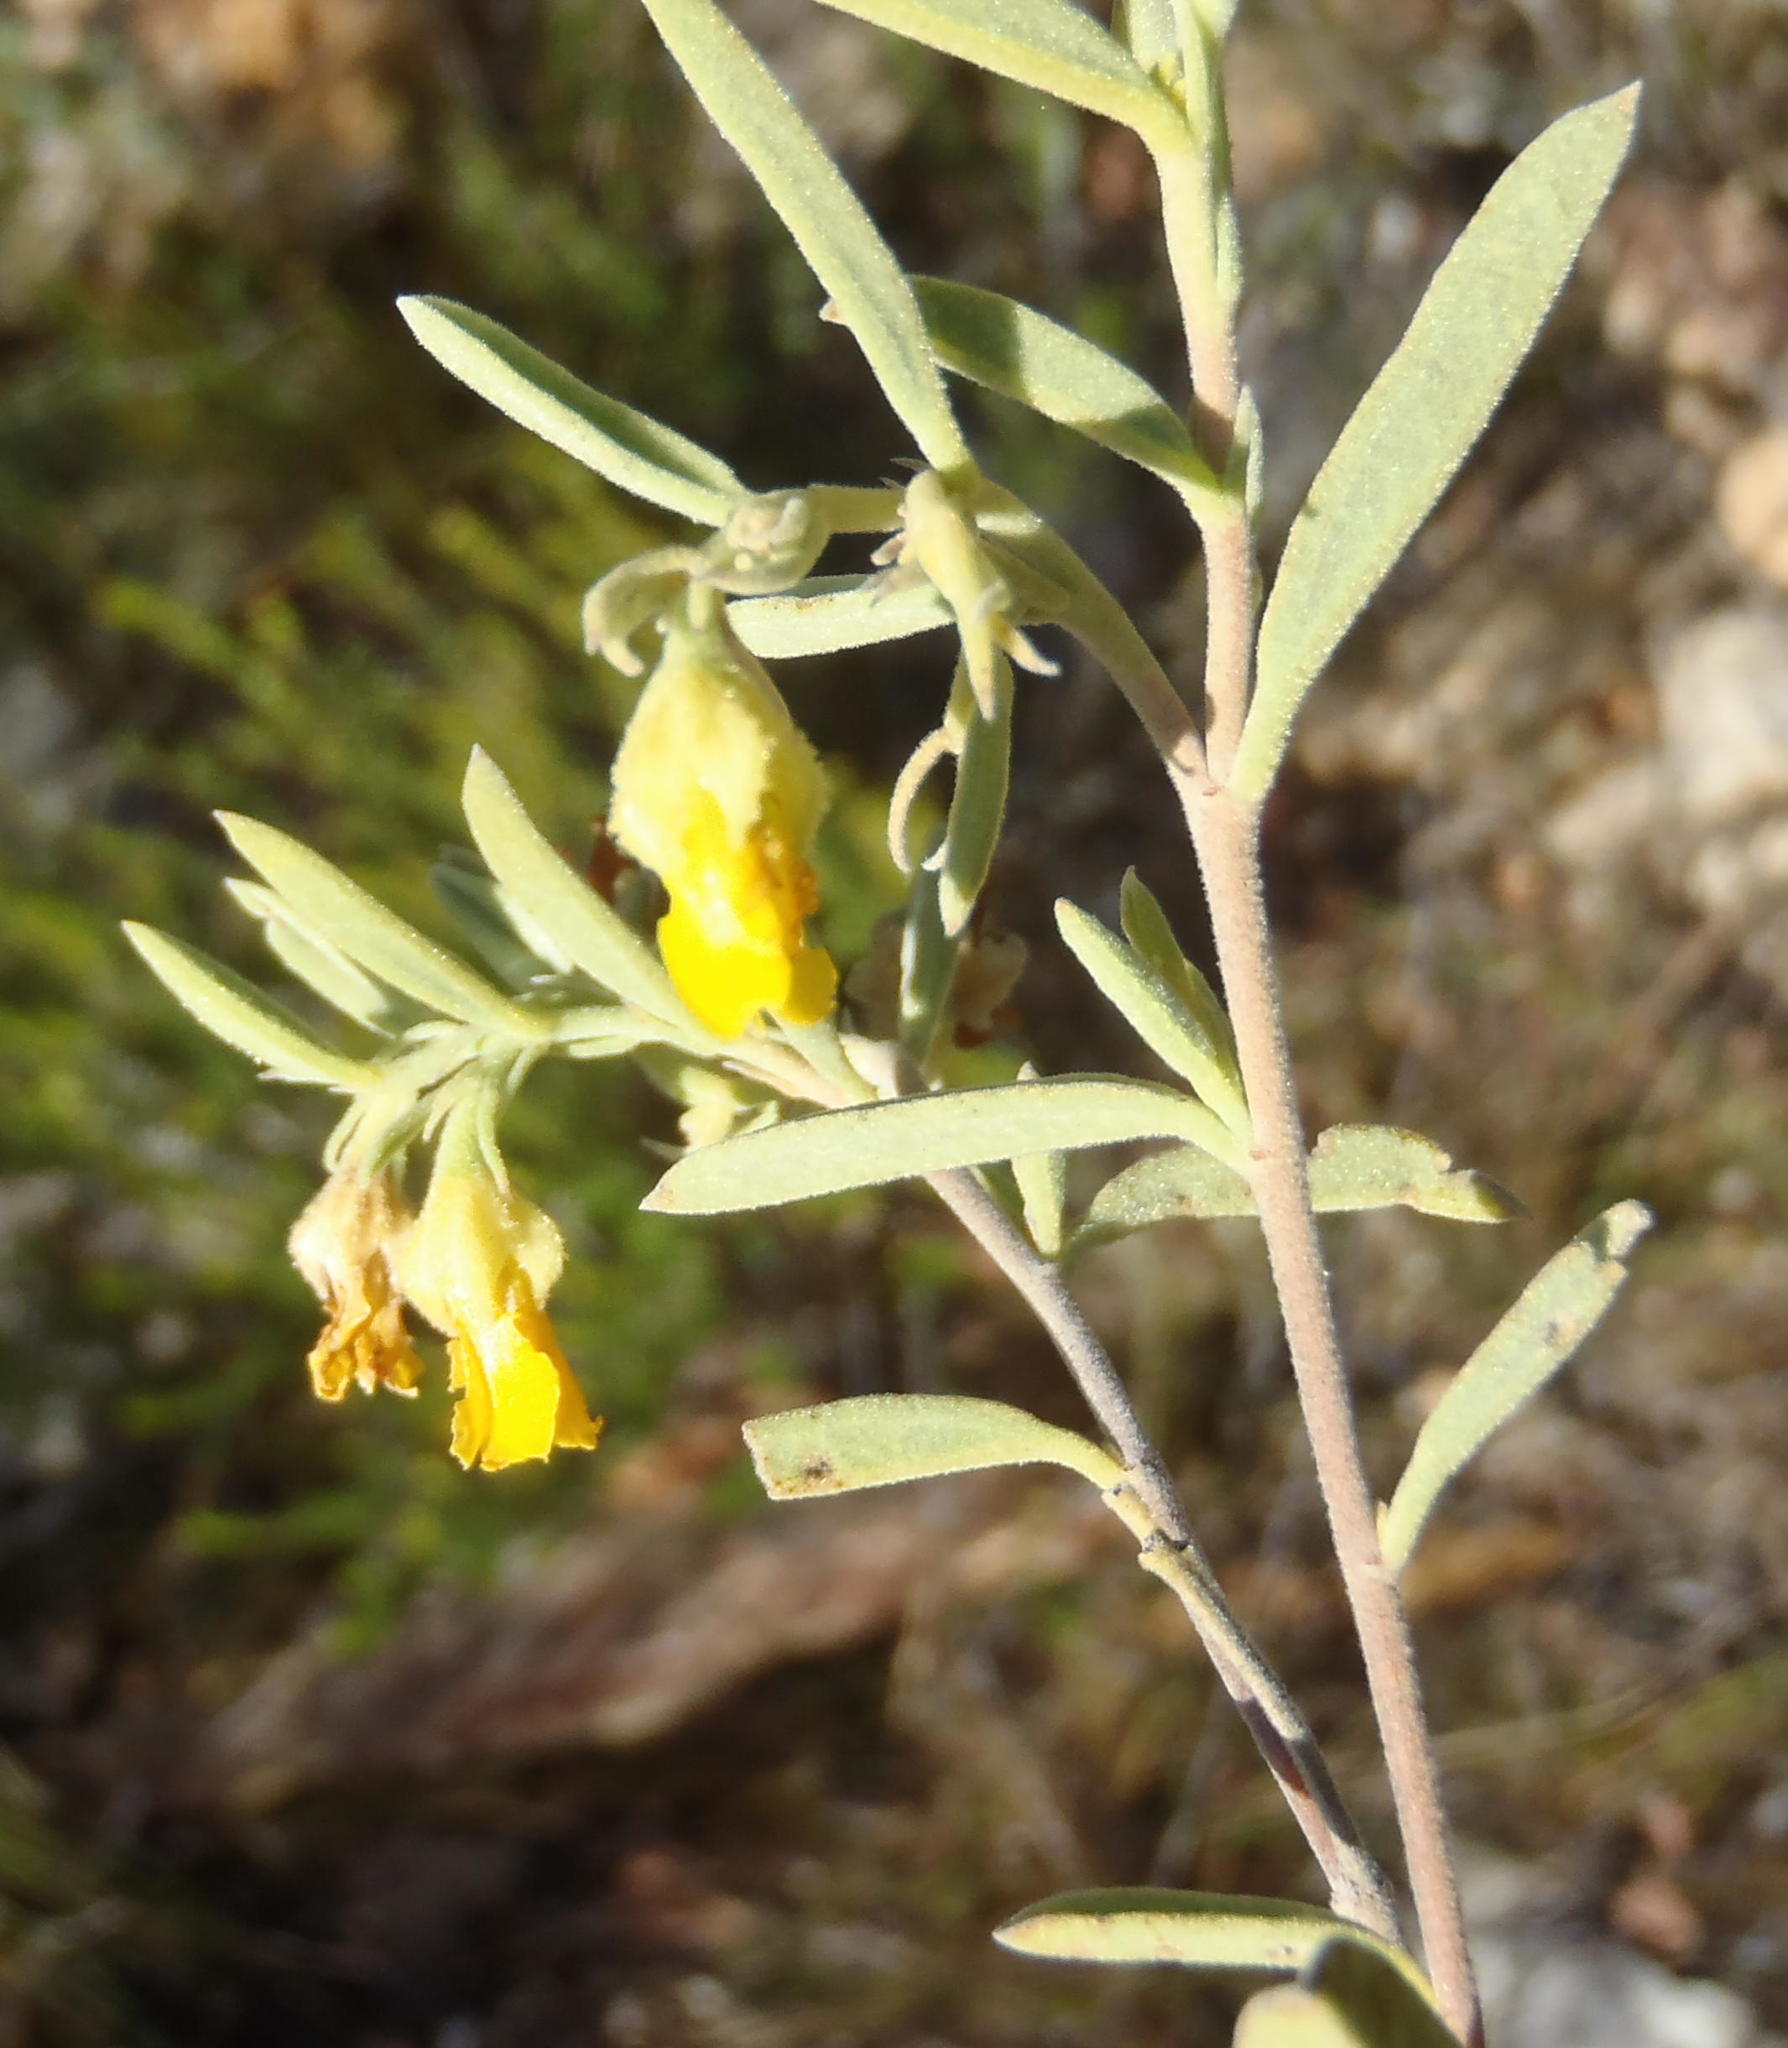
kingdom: Plantae
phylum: Tracheophyta
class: Magnoliopsida
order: Malvales
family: Malvaceae
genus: Hermannia
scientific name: Hermannia velutina
